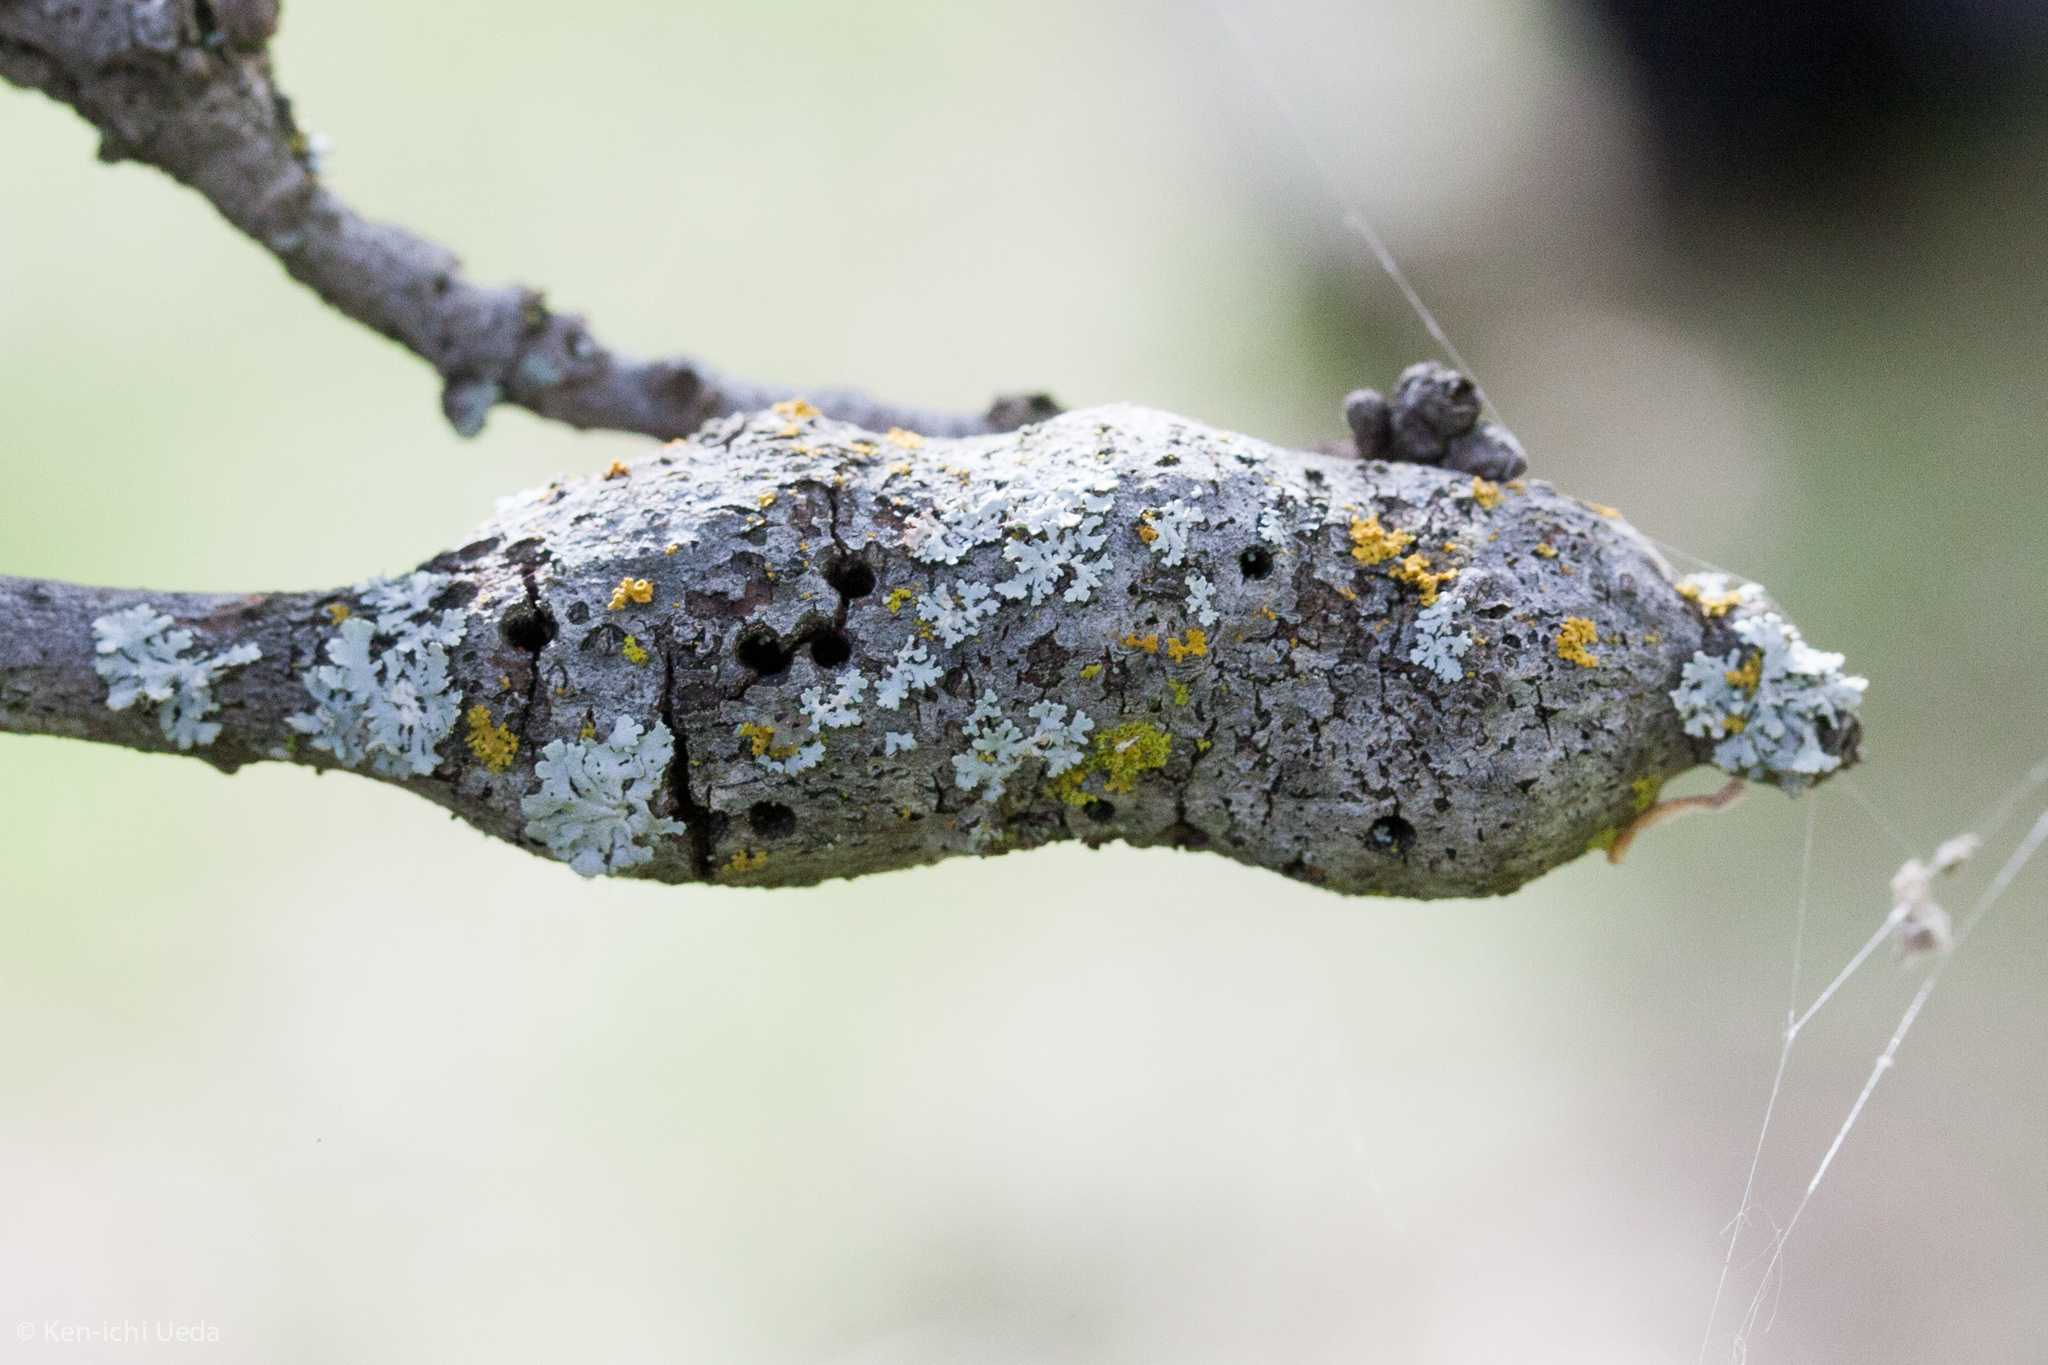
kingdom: Animalia
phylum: Arthropoda
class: Insecta
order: Hymenoptera
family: Cynipidae
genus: Disholcaspis
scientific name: Disholcaspis spectabilis
